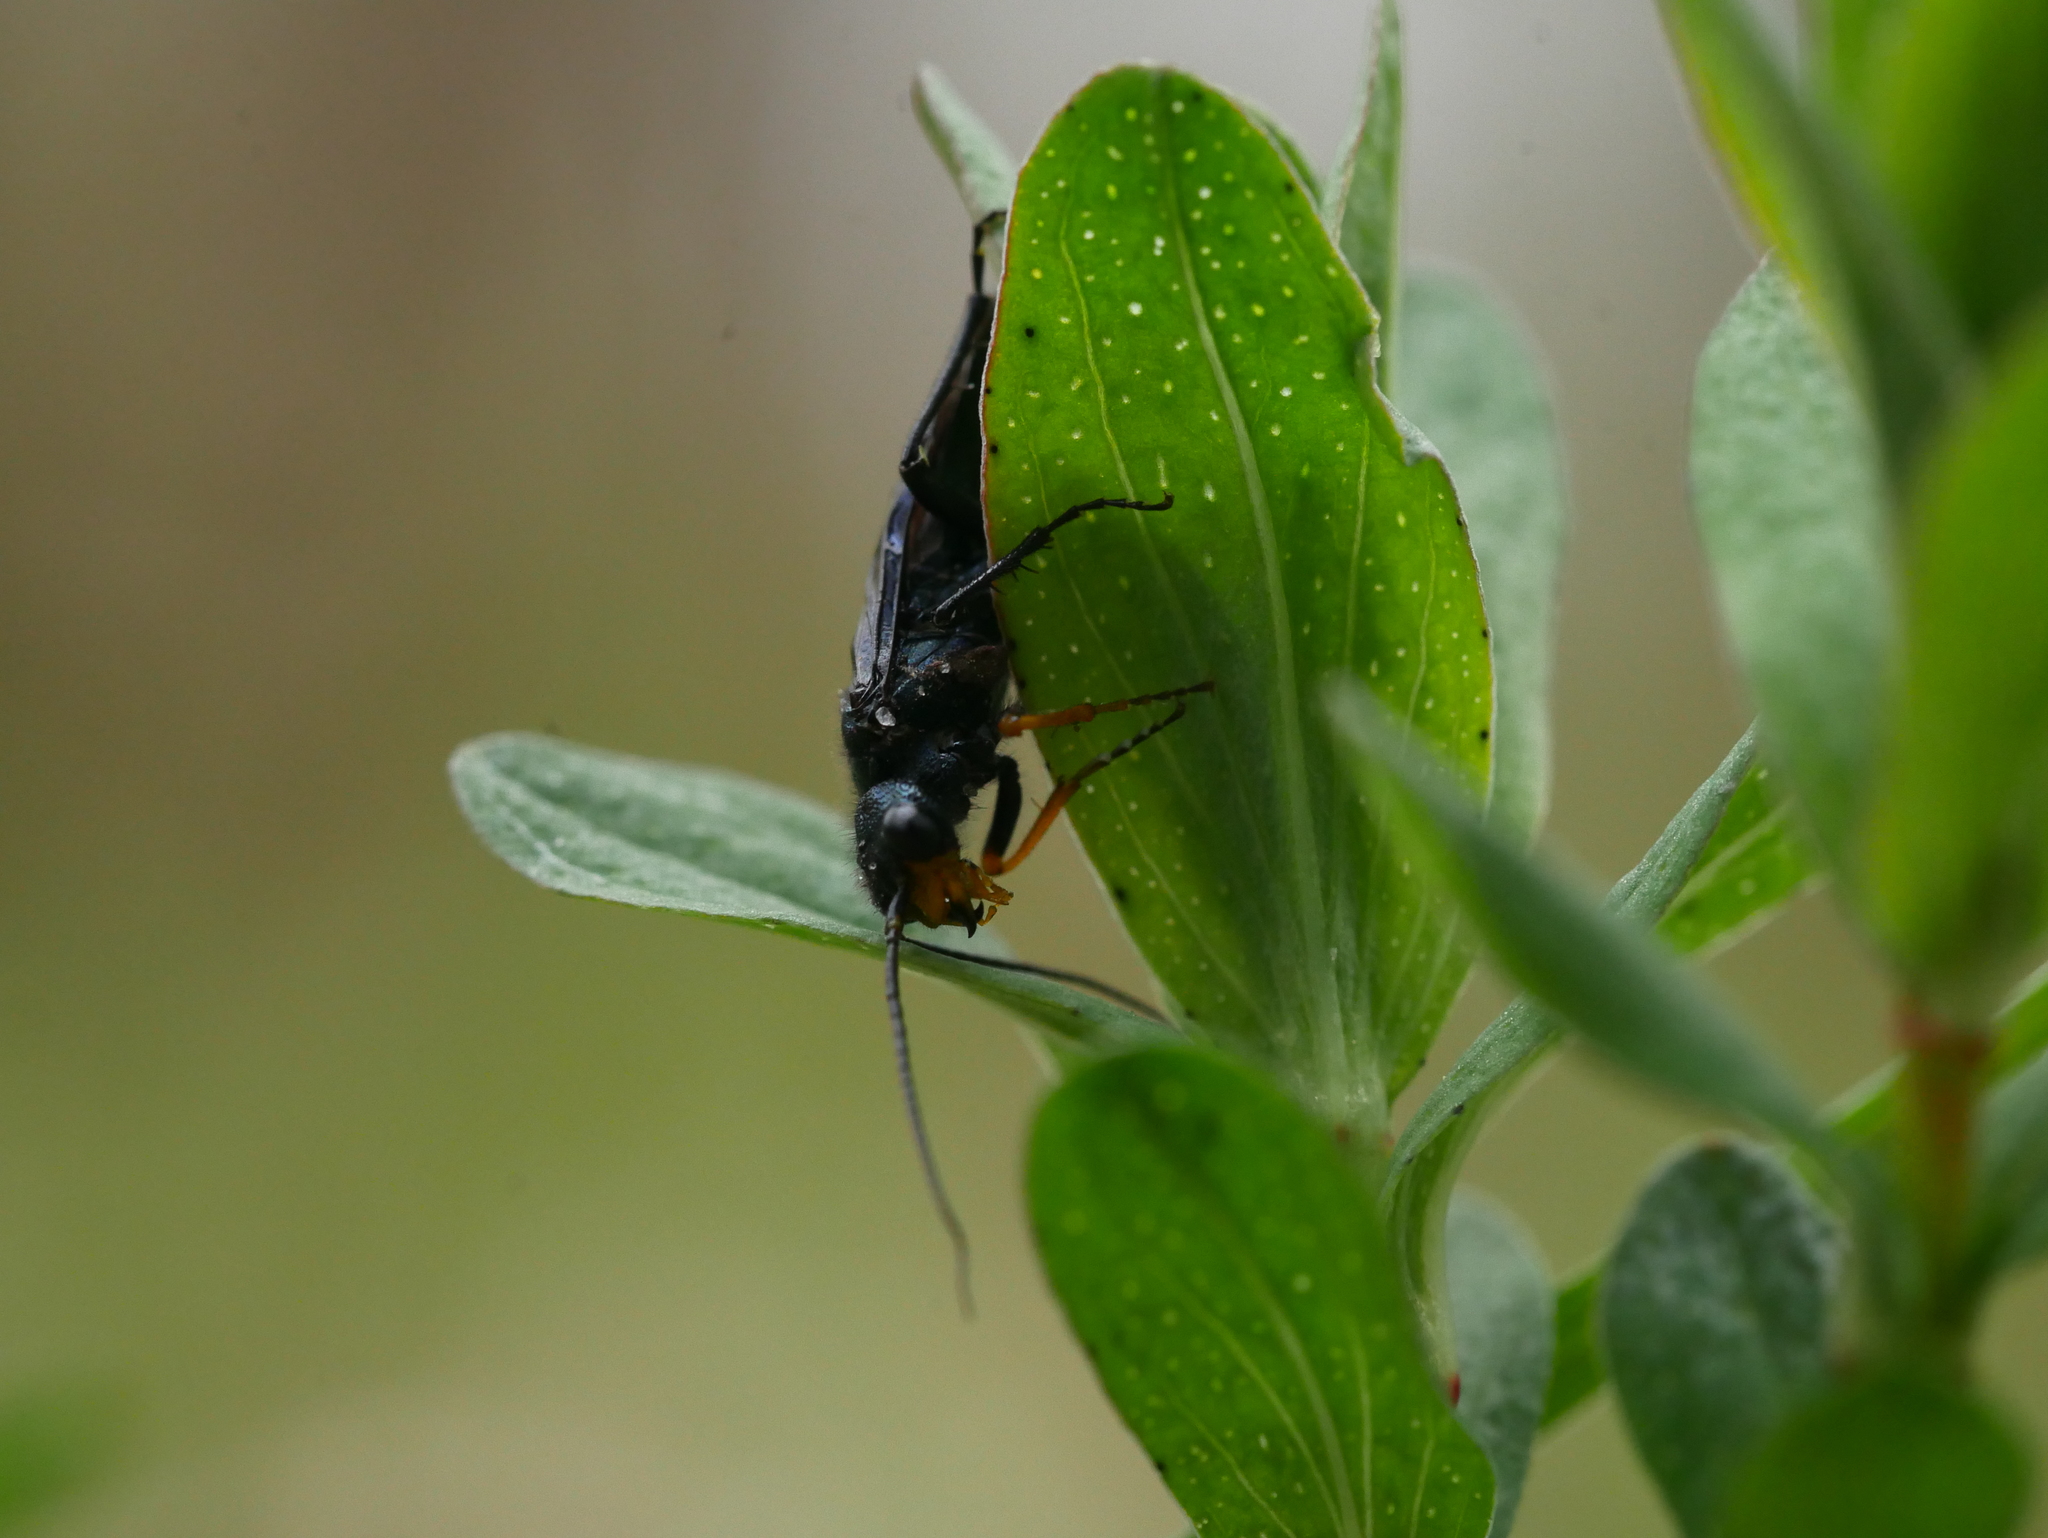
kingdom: Animalia
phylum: Arthropoda
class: Insecta
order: Hymenoptera
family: Pamphiliidae
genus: Acantholyda
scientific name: Acantholyda erythrocephala
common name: Pine false webworm
